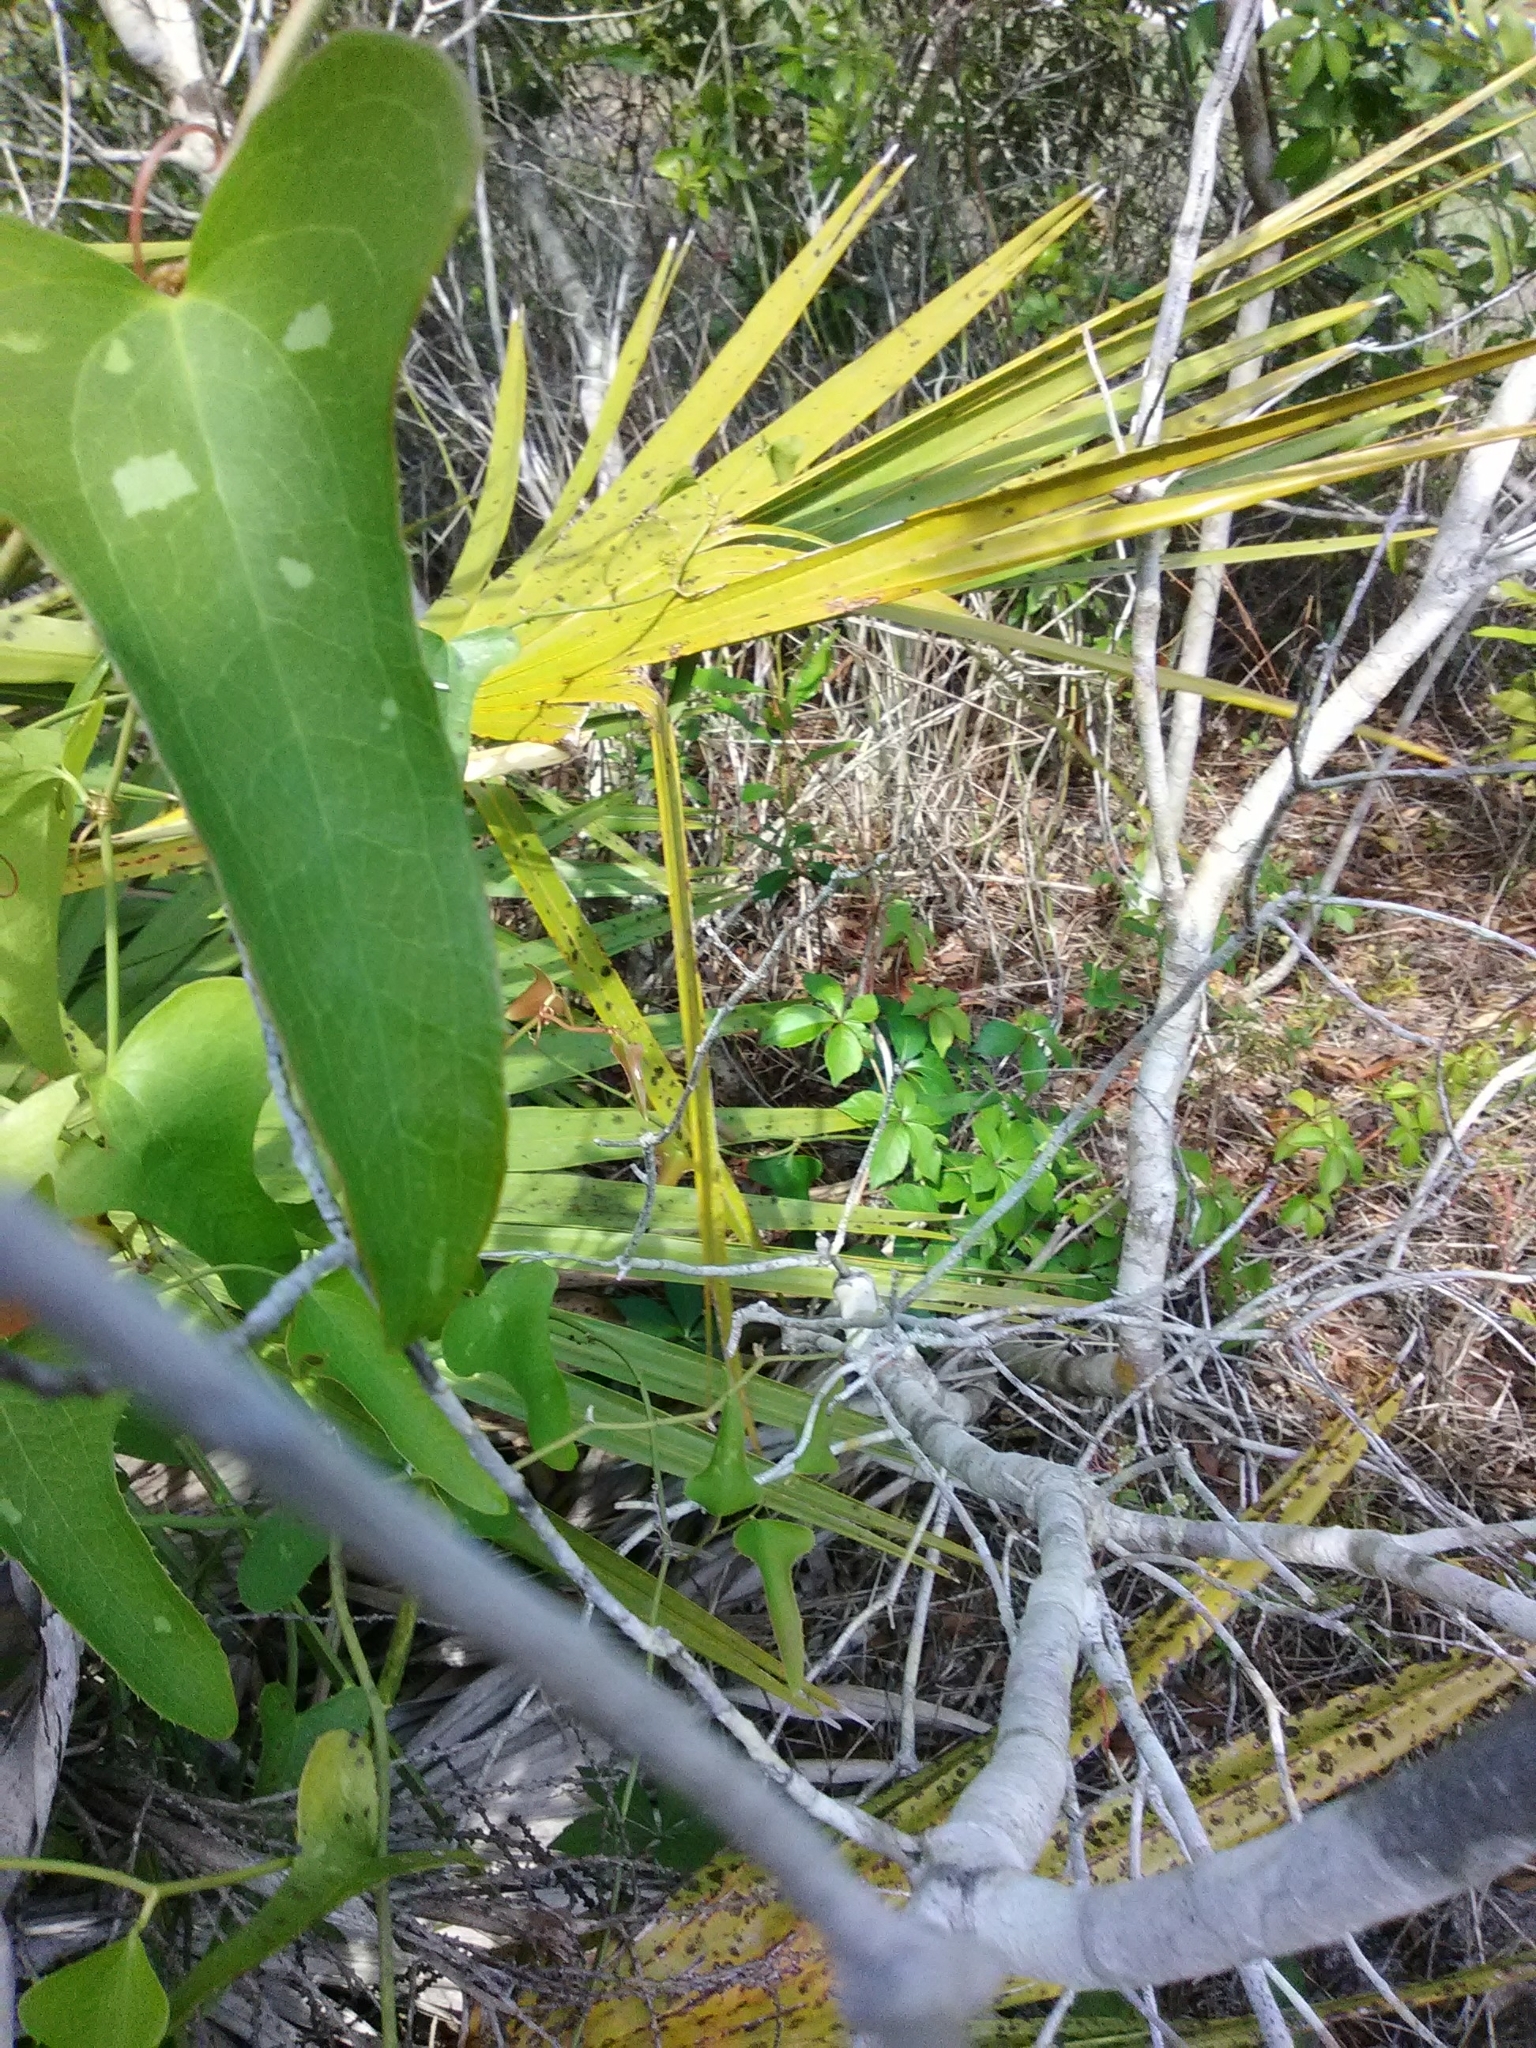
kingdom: Plantae
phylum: Tracheophyta
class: Liliopsida
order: Liliales
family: Smilacaceae
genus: Smilax
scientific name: Smilax bona-nox
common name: Catbrier
